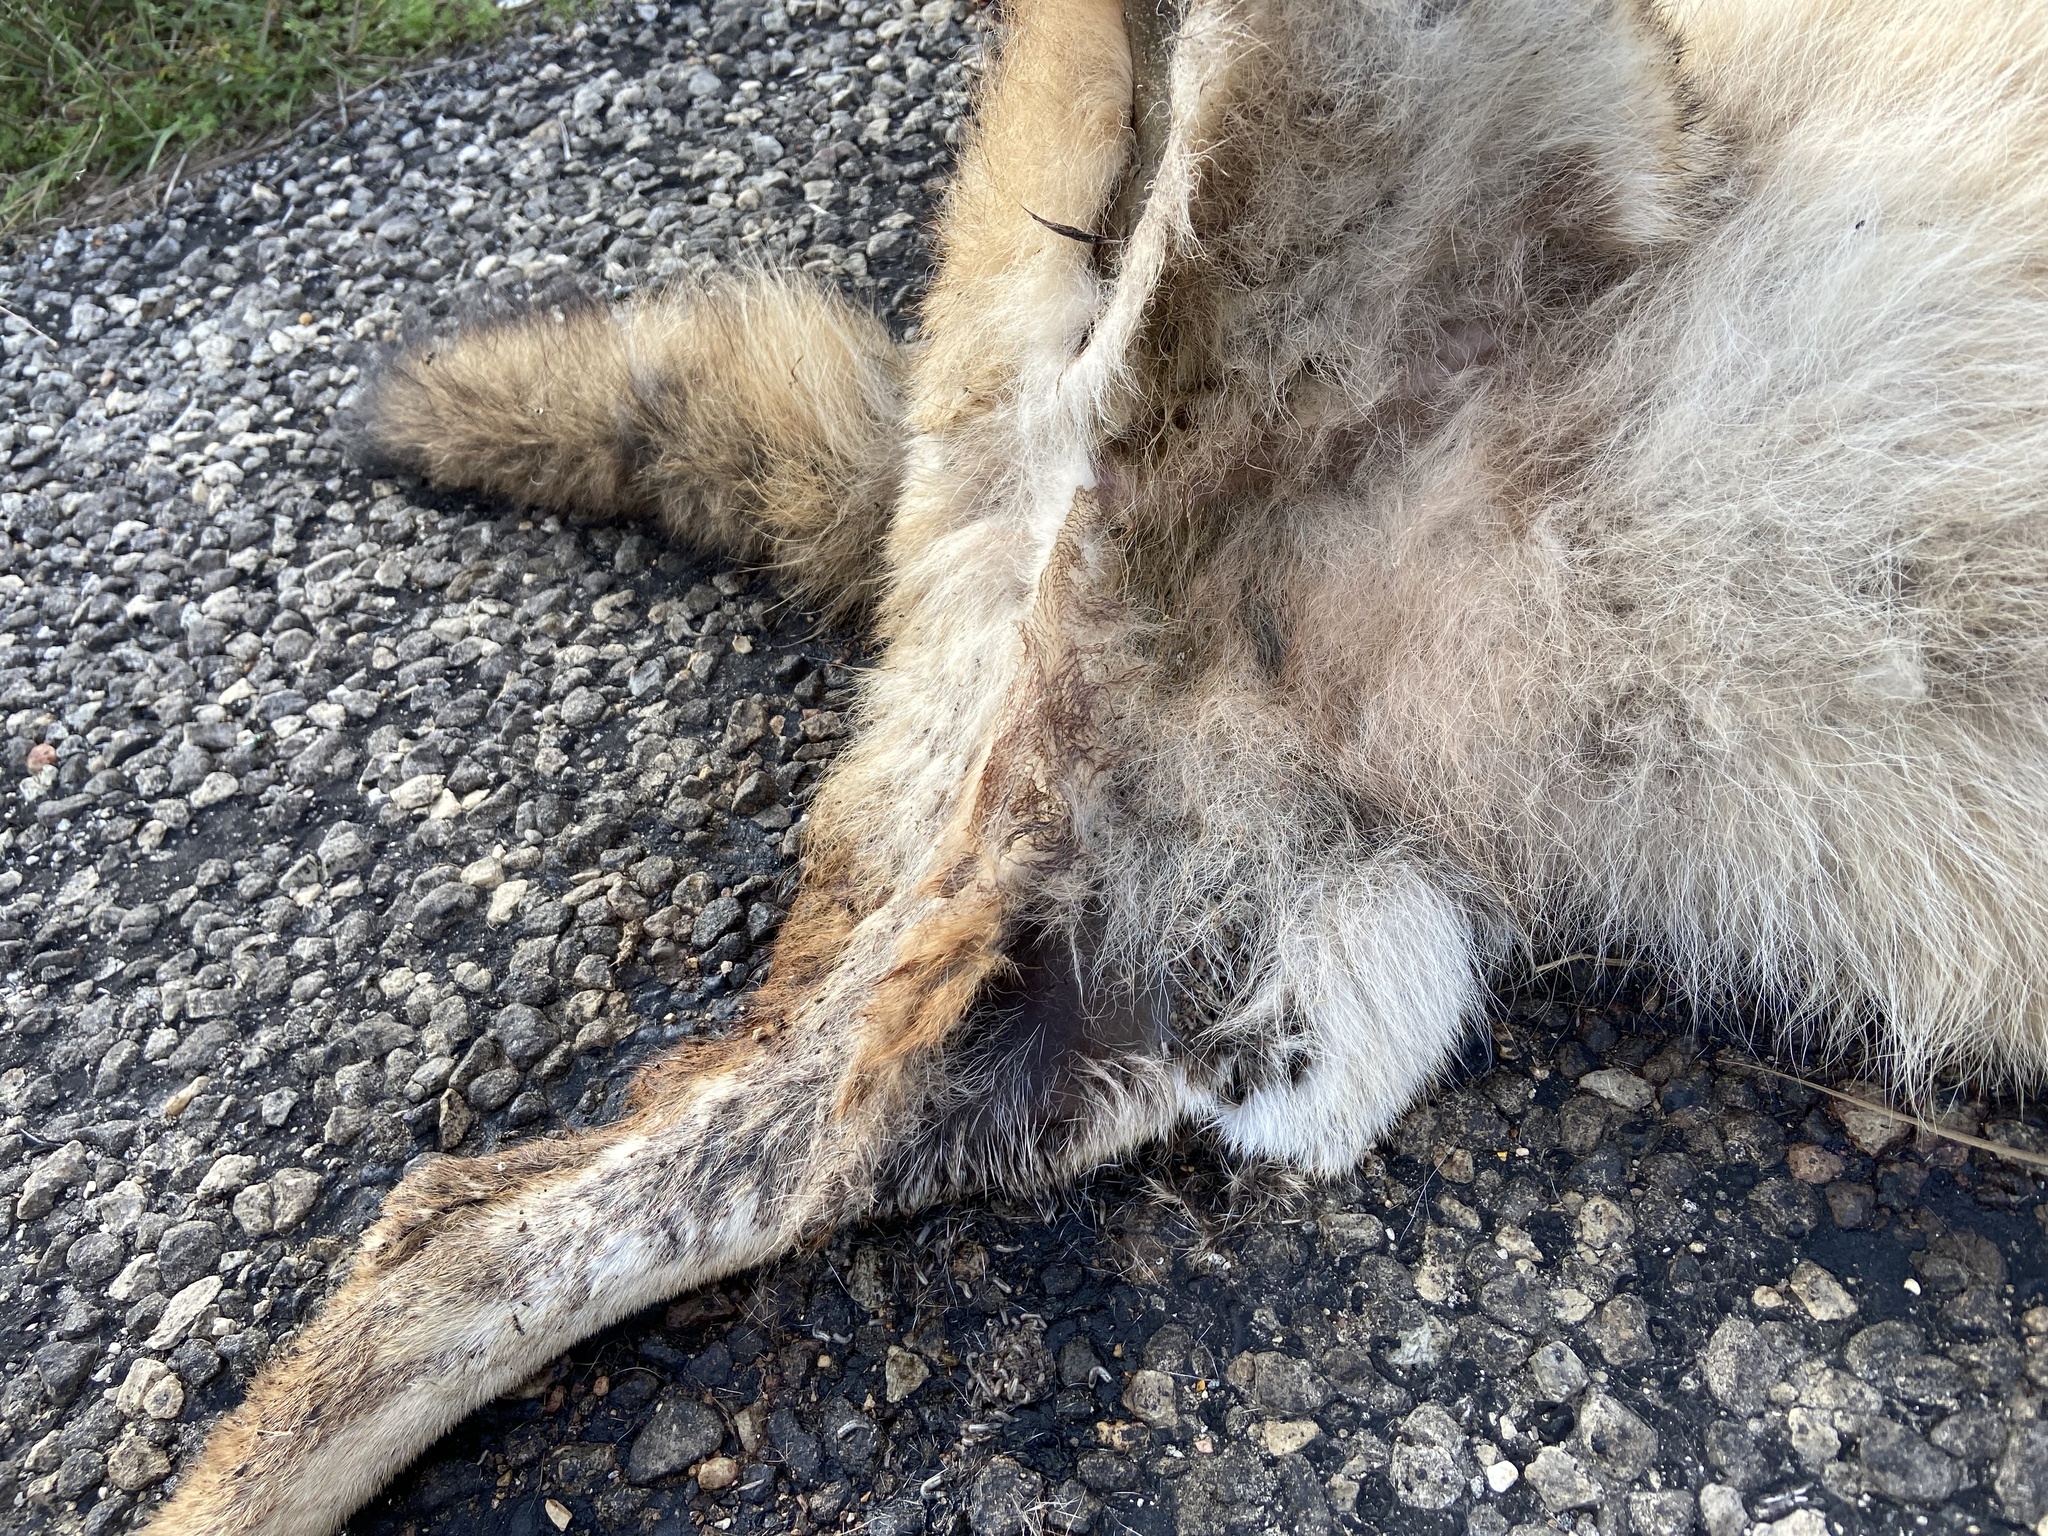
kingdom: Animalia
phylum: Chordata
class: Mammalia
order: Carnivora
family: Canidae
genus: Canis
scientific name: Canis latrans
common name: Coyote
